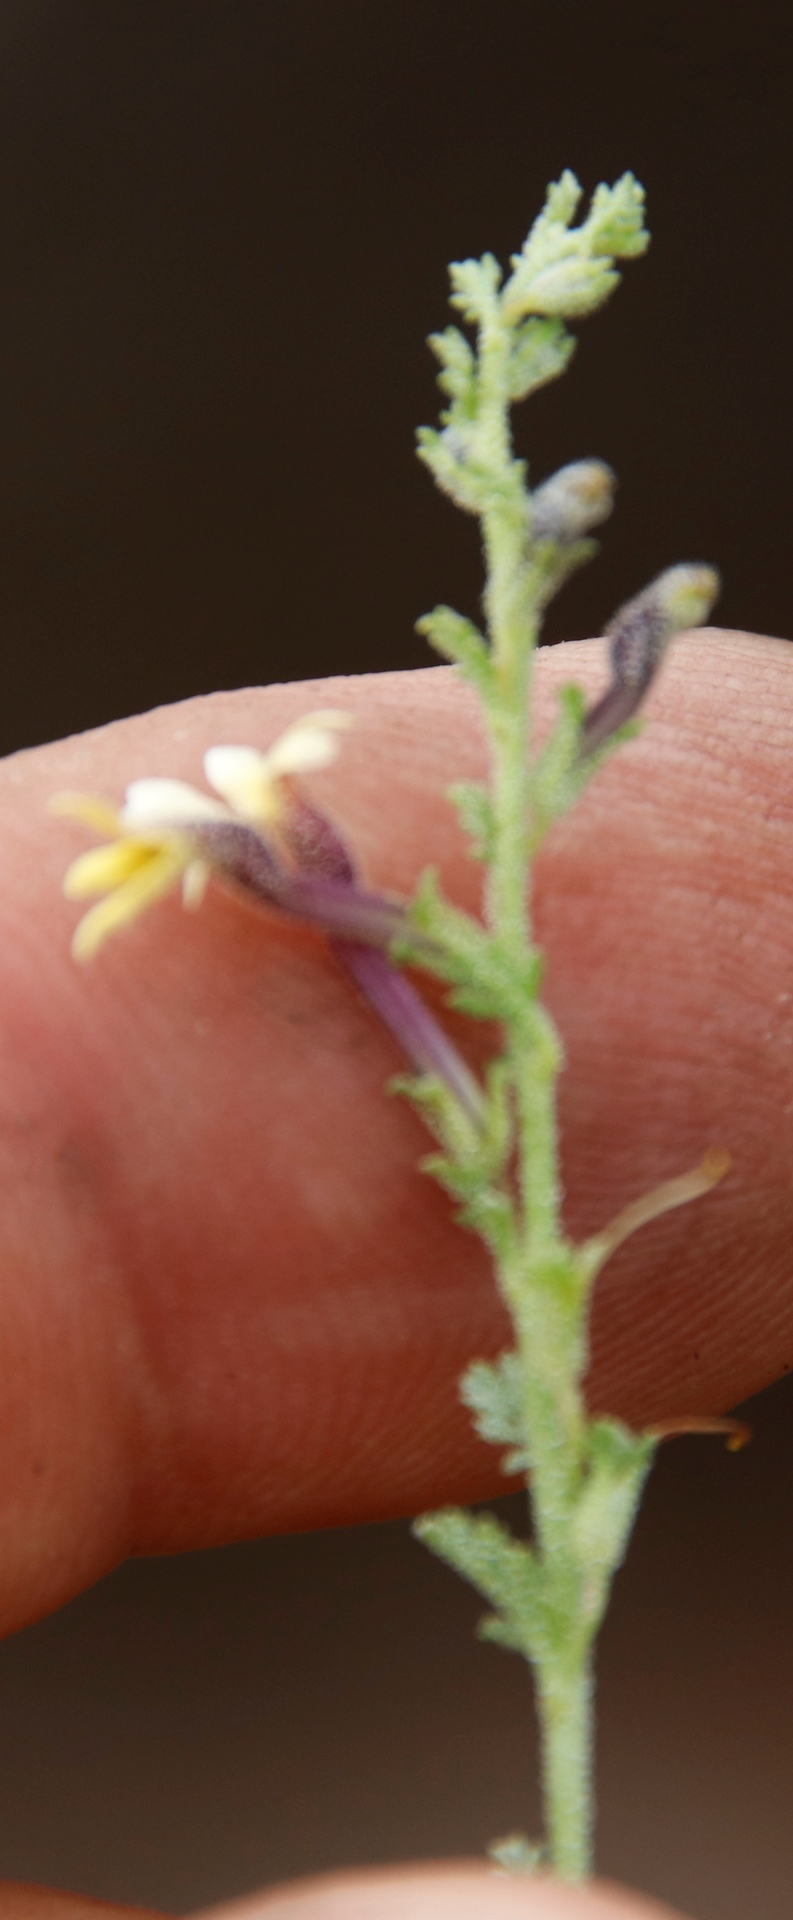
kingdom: Plantae
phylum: Tracheophyta
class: Magnoliopsida
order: Lamiales
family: Scrophulariaceae
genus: Jamesbrittenia
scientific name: Jamesbrittenia pristisepala
